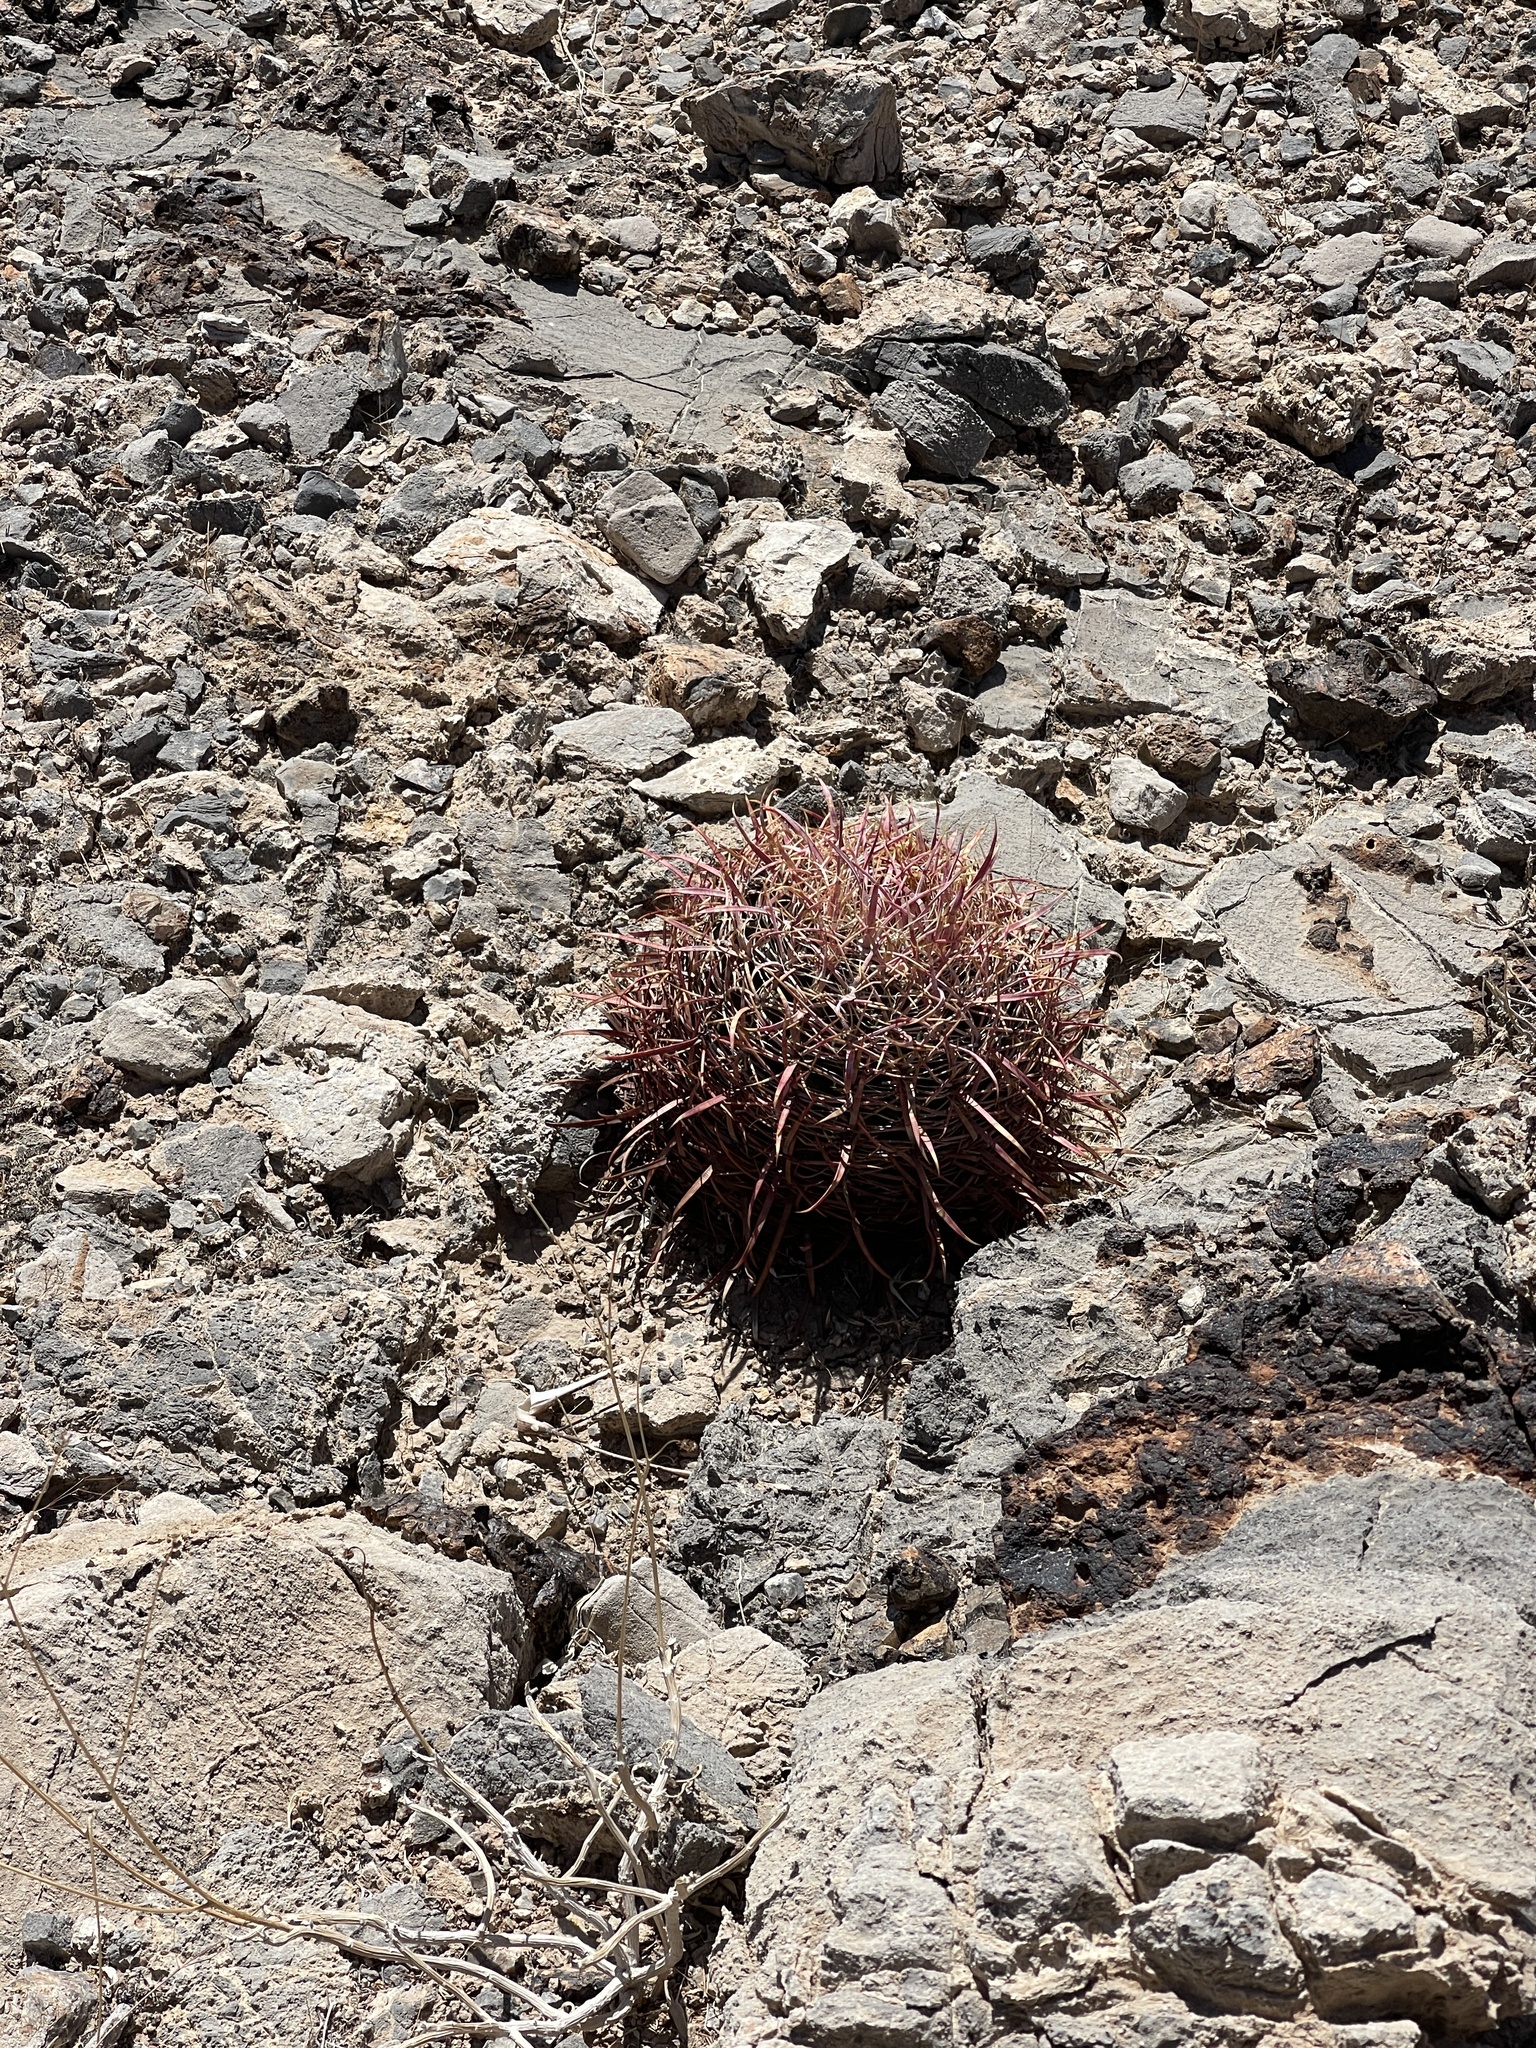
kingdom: Plantae
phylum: Tracheophyta
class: Magnoliopsida
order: Caryophyllales
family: Cactaceae
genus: Ferocactus
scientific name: Ferocactus cylindraceus
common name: California barrel cactus
